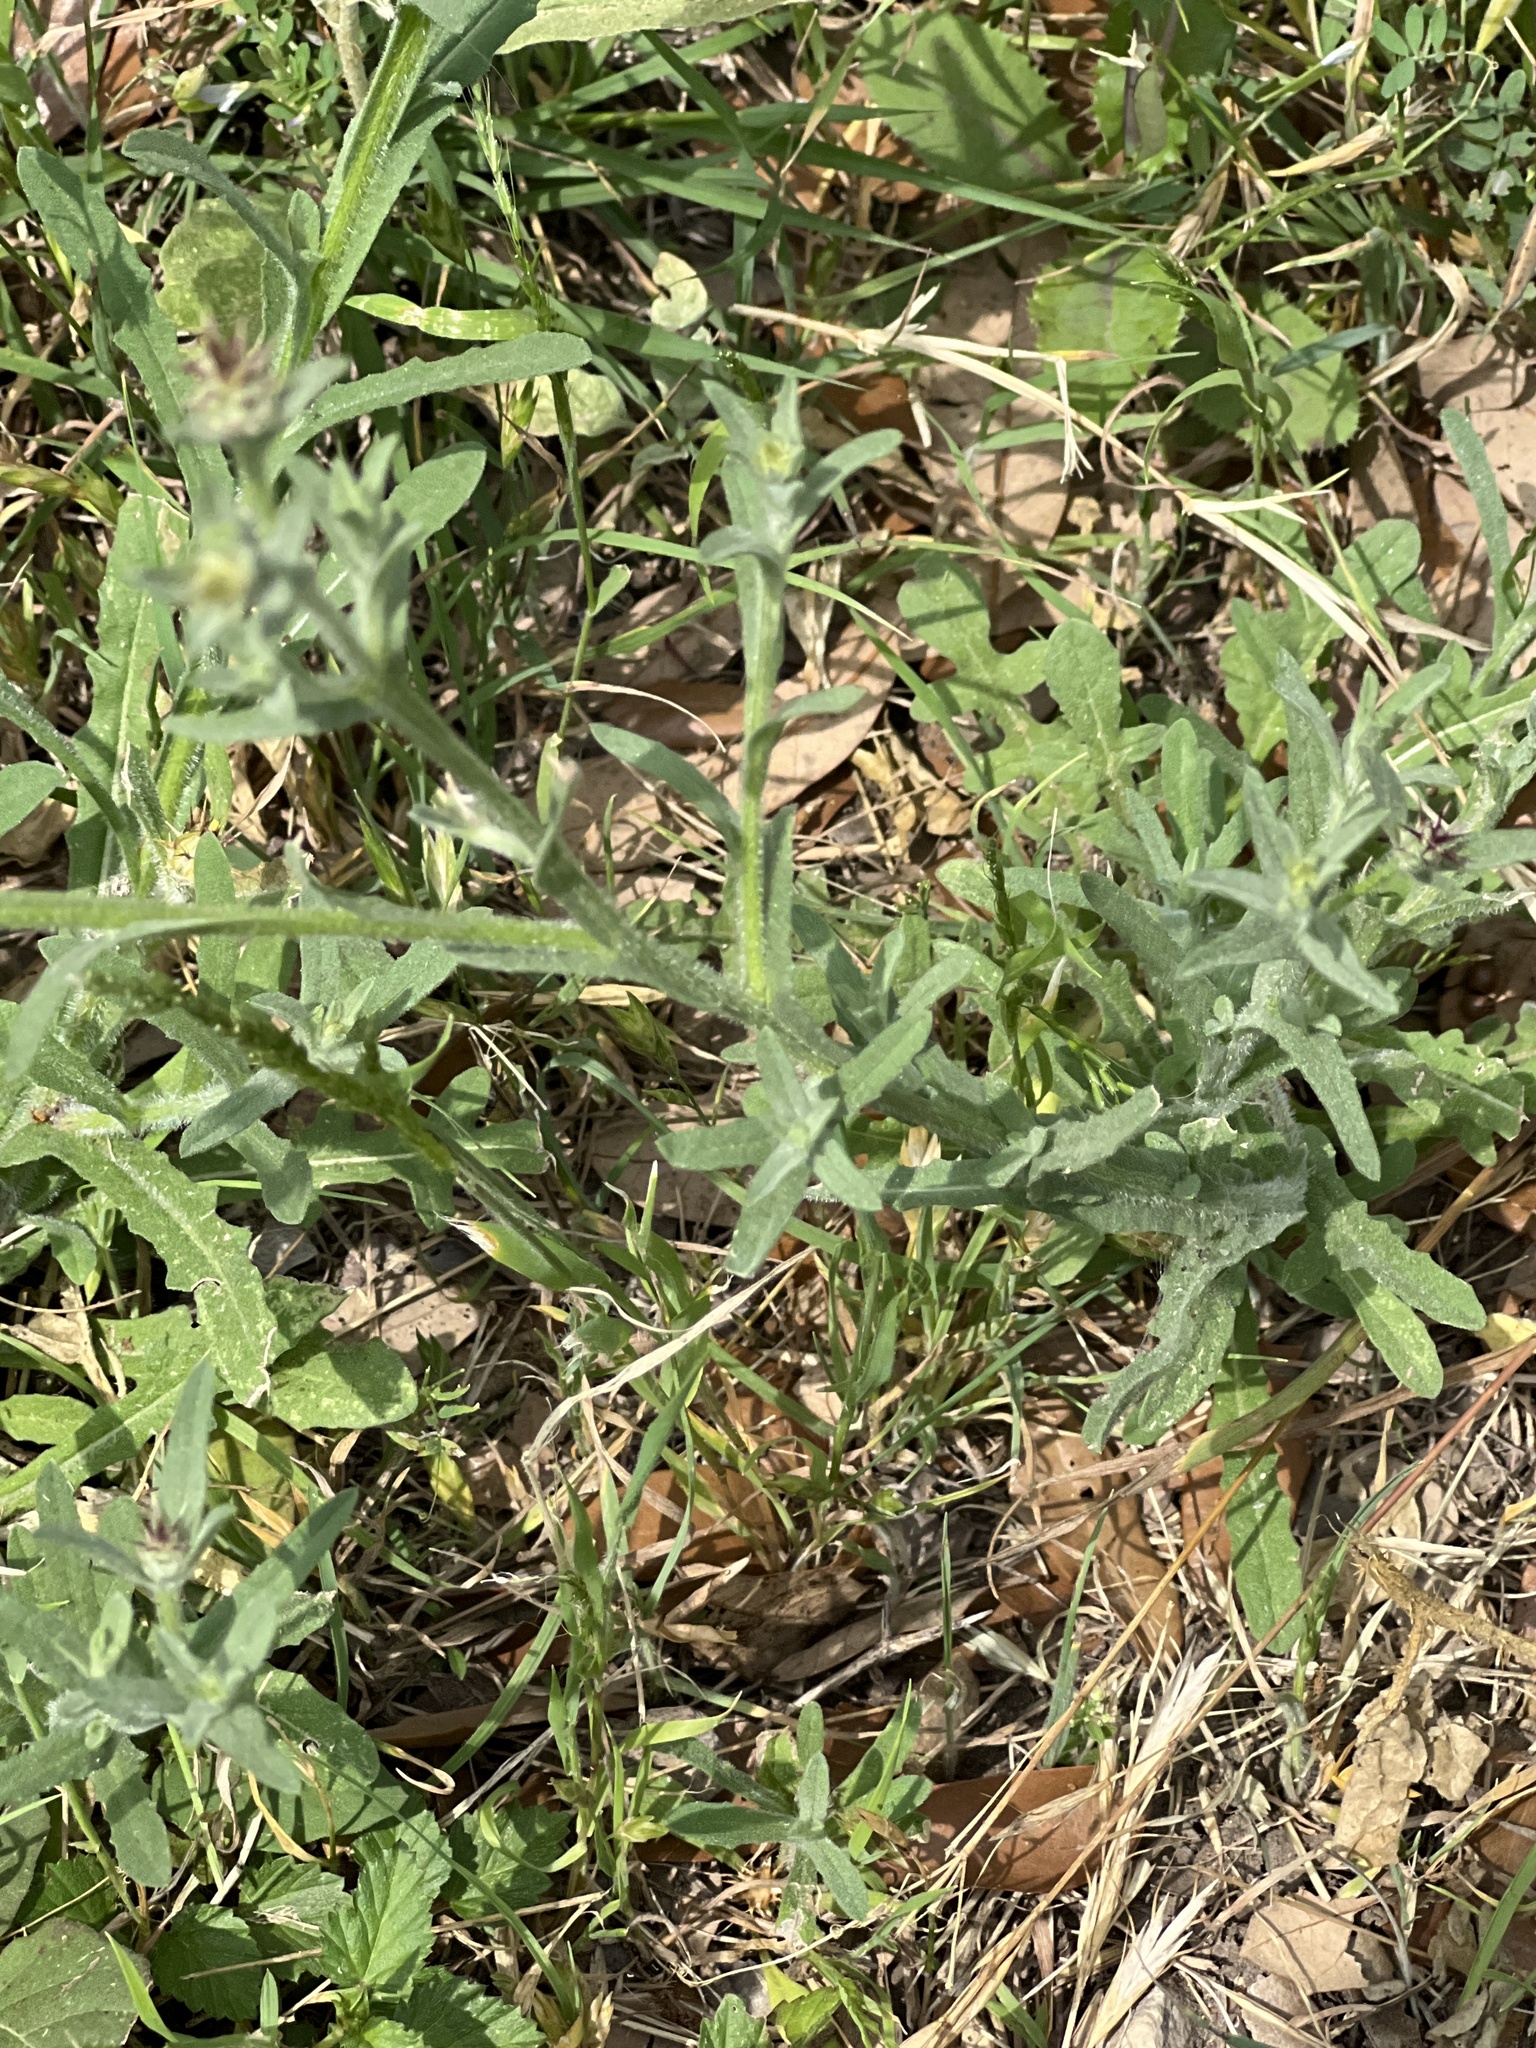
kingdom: Plantae
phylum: Tracheophyta
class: Magnoliopsida
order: Asterales
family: Asteraceae
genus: Centaurea
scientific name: Centaurea melitensis
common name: Maltese star-thistle
